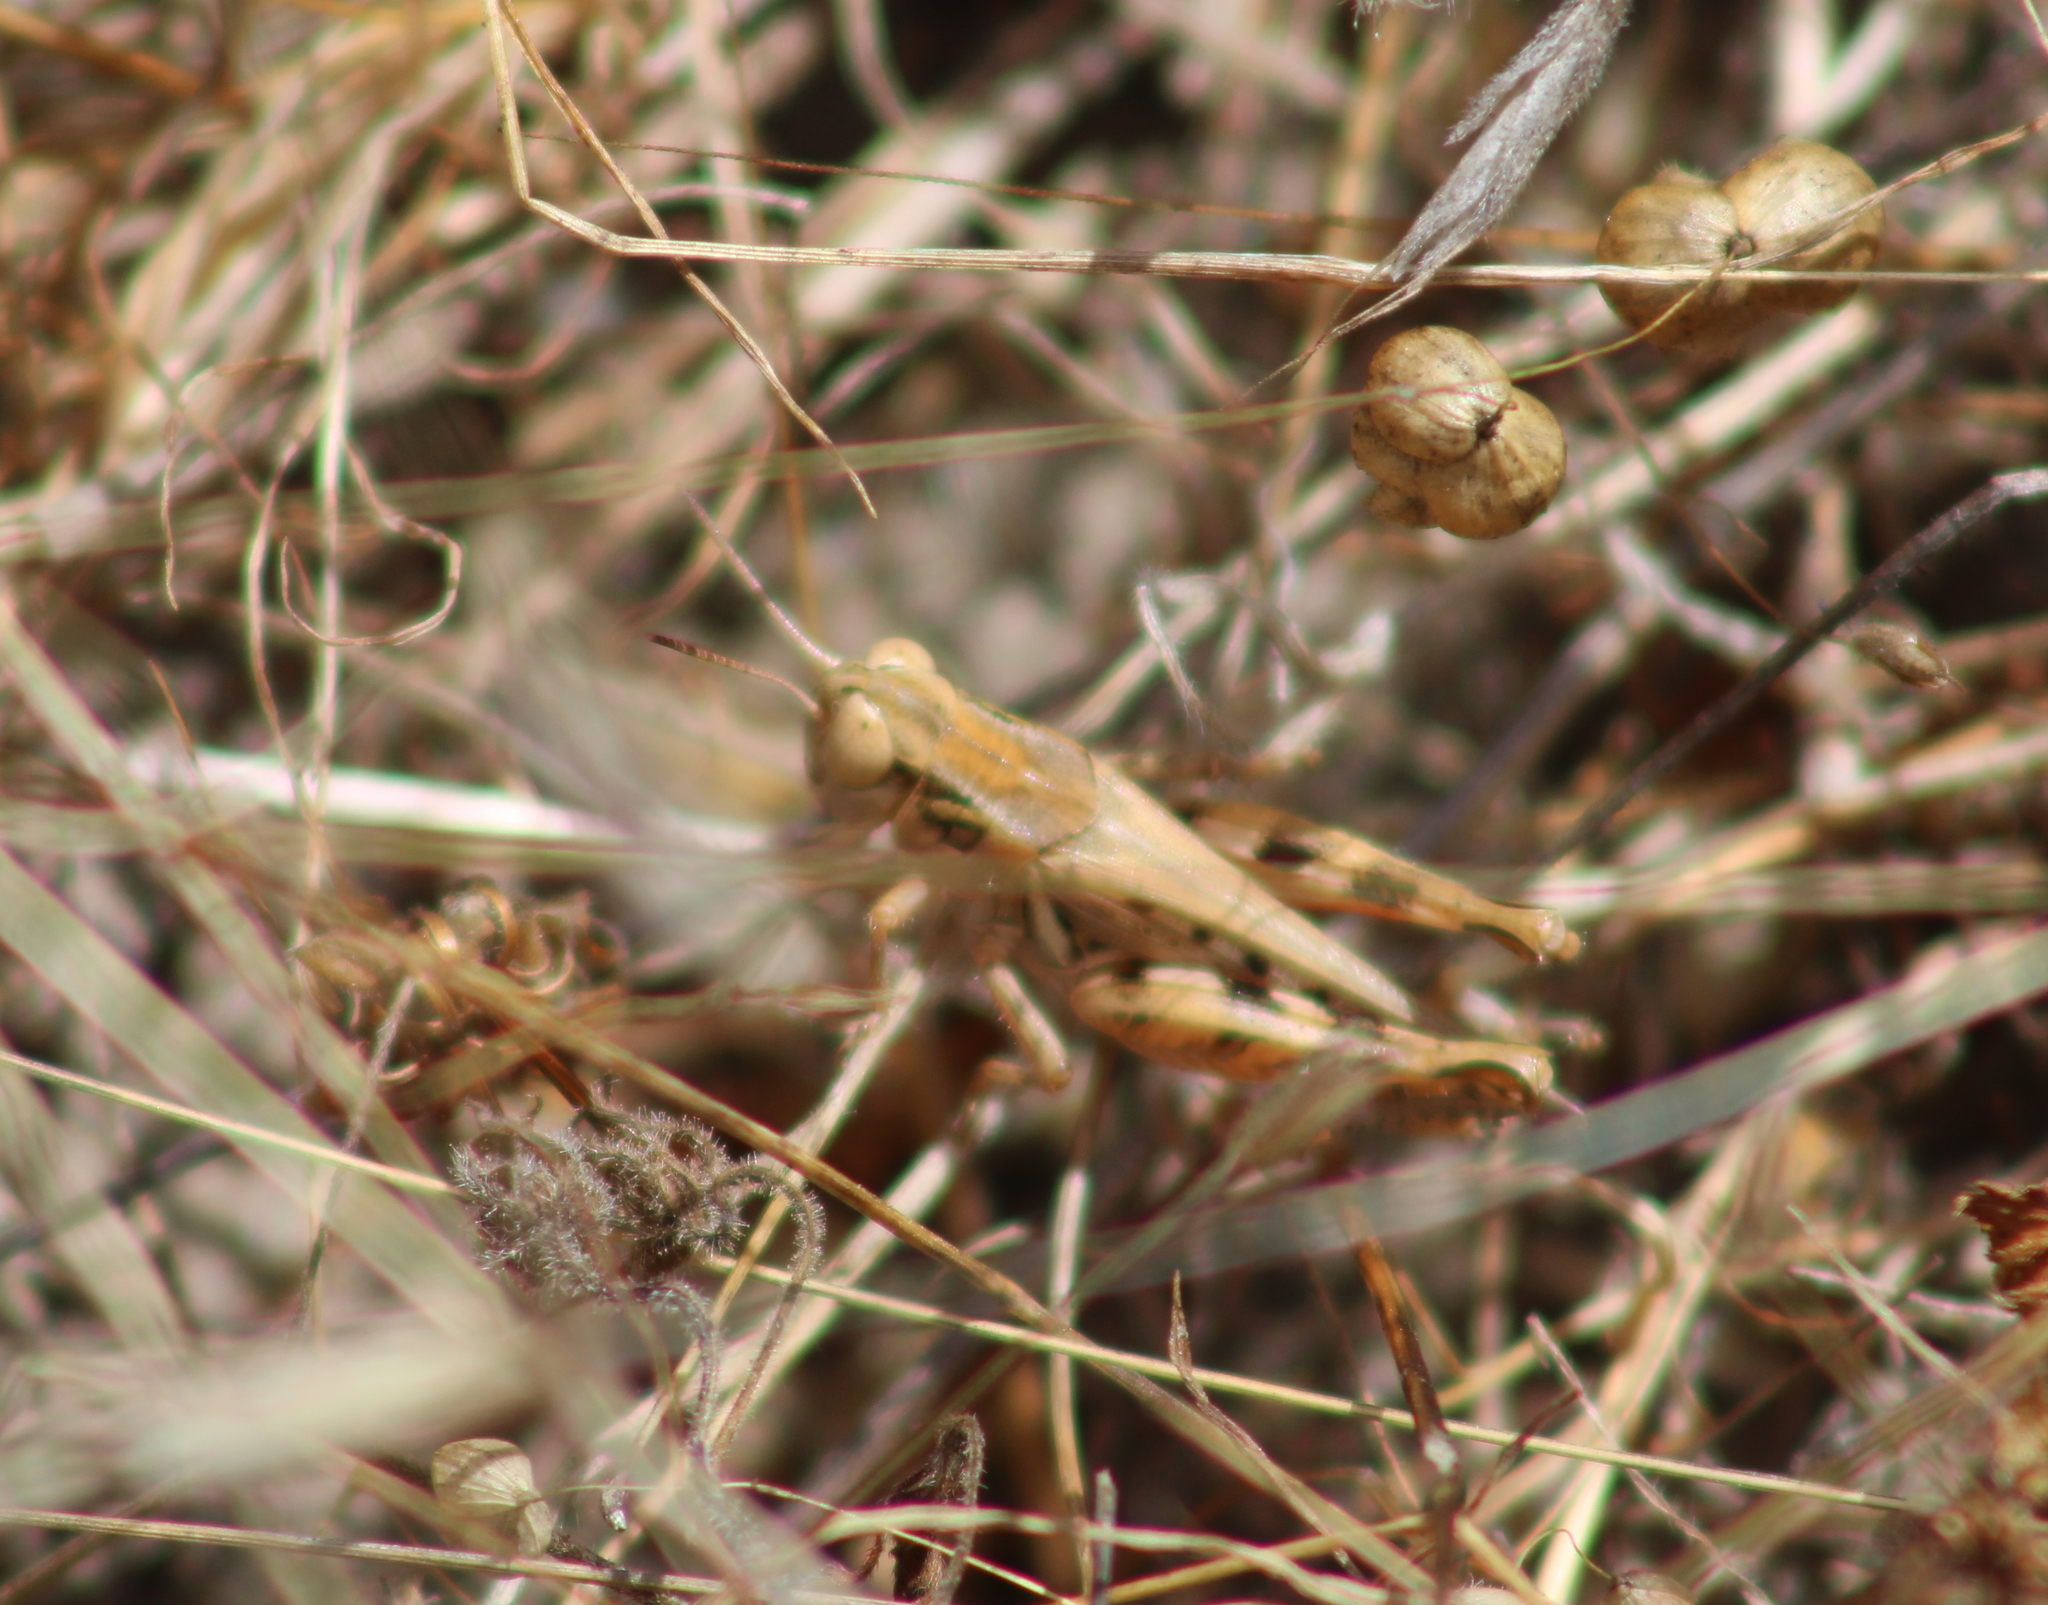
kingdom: Animalia
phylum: Arthropoda
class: Insecta
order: Orthoptera
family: Acrididae
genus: Melanoplus
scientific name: Melanoplus devastator
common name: Devastating grasshopper
